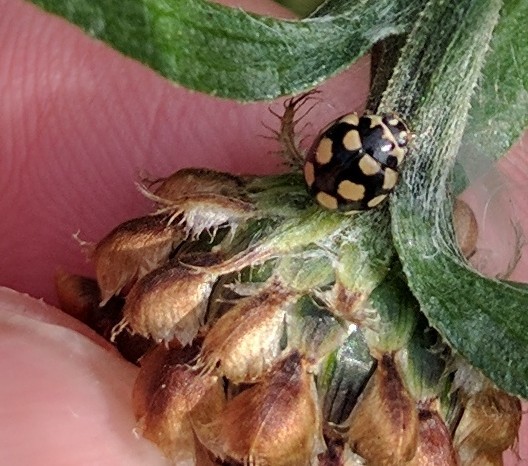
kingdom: Animalia
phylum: Arthropoda
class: Insecta
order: Coleoptera
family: Coccinellidae
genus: Coccinula
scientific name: Coccinula quatuordecimpustulata
